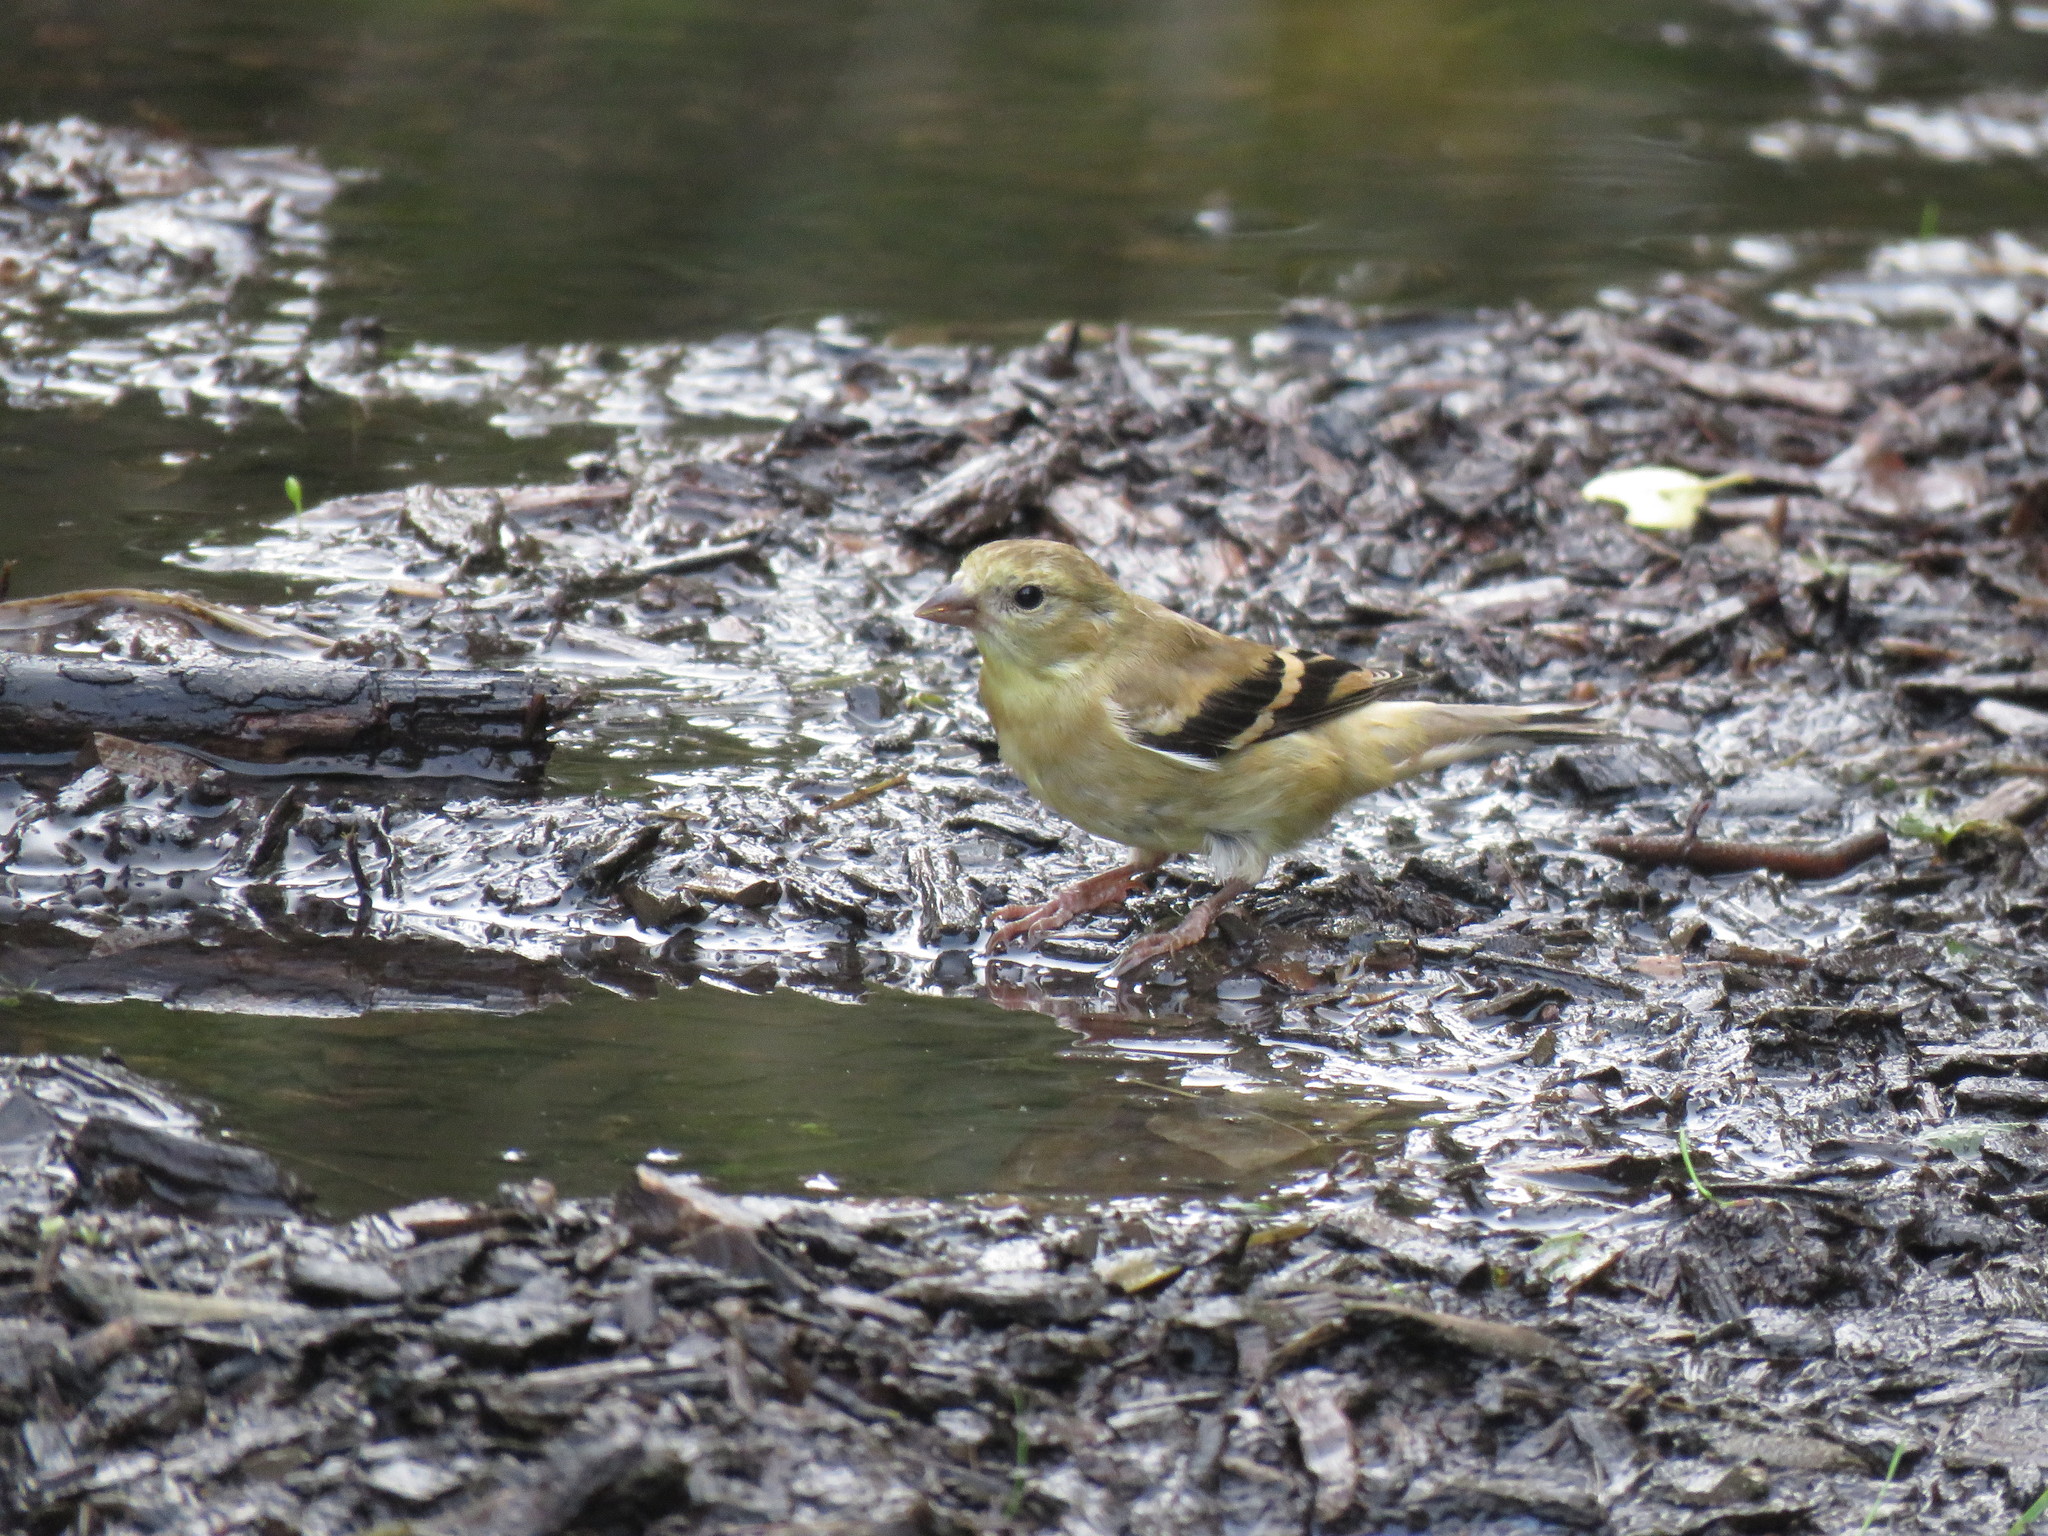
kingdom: Animalia
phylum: Chordata
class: Aves
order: Passeriformes
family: Fringillidae
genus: Spinus
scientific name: Spinus tristis
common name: American goldfinch
